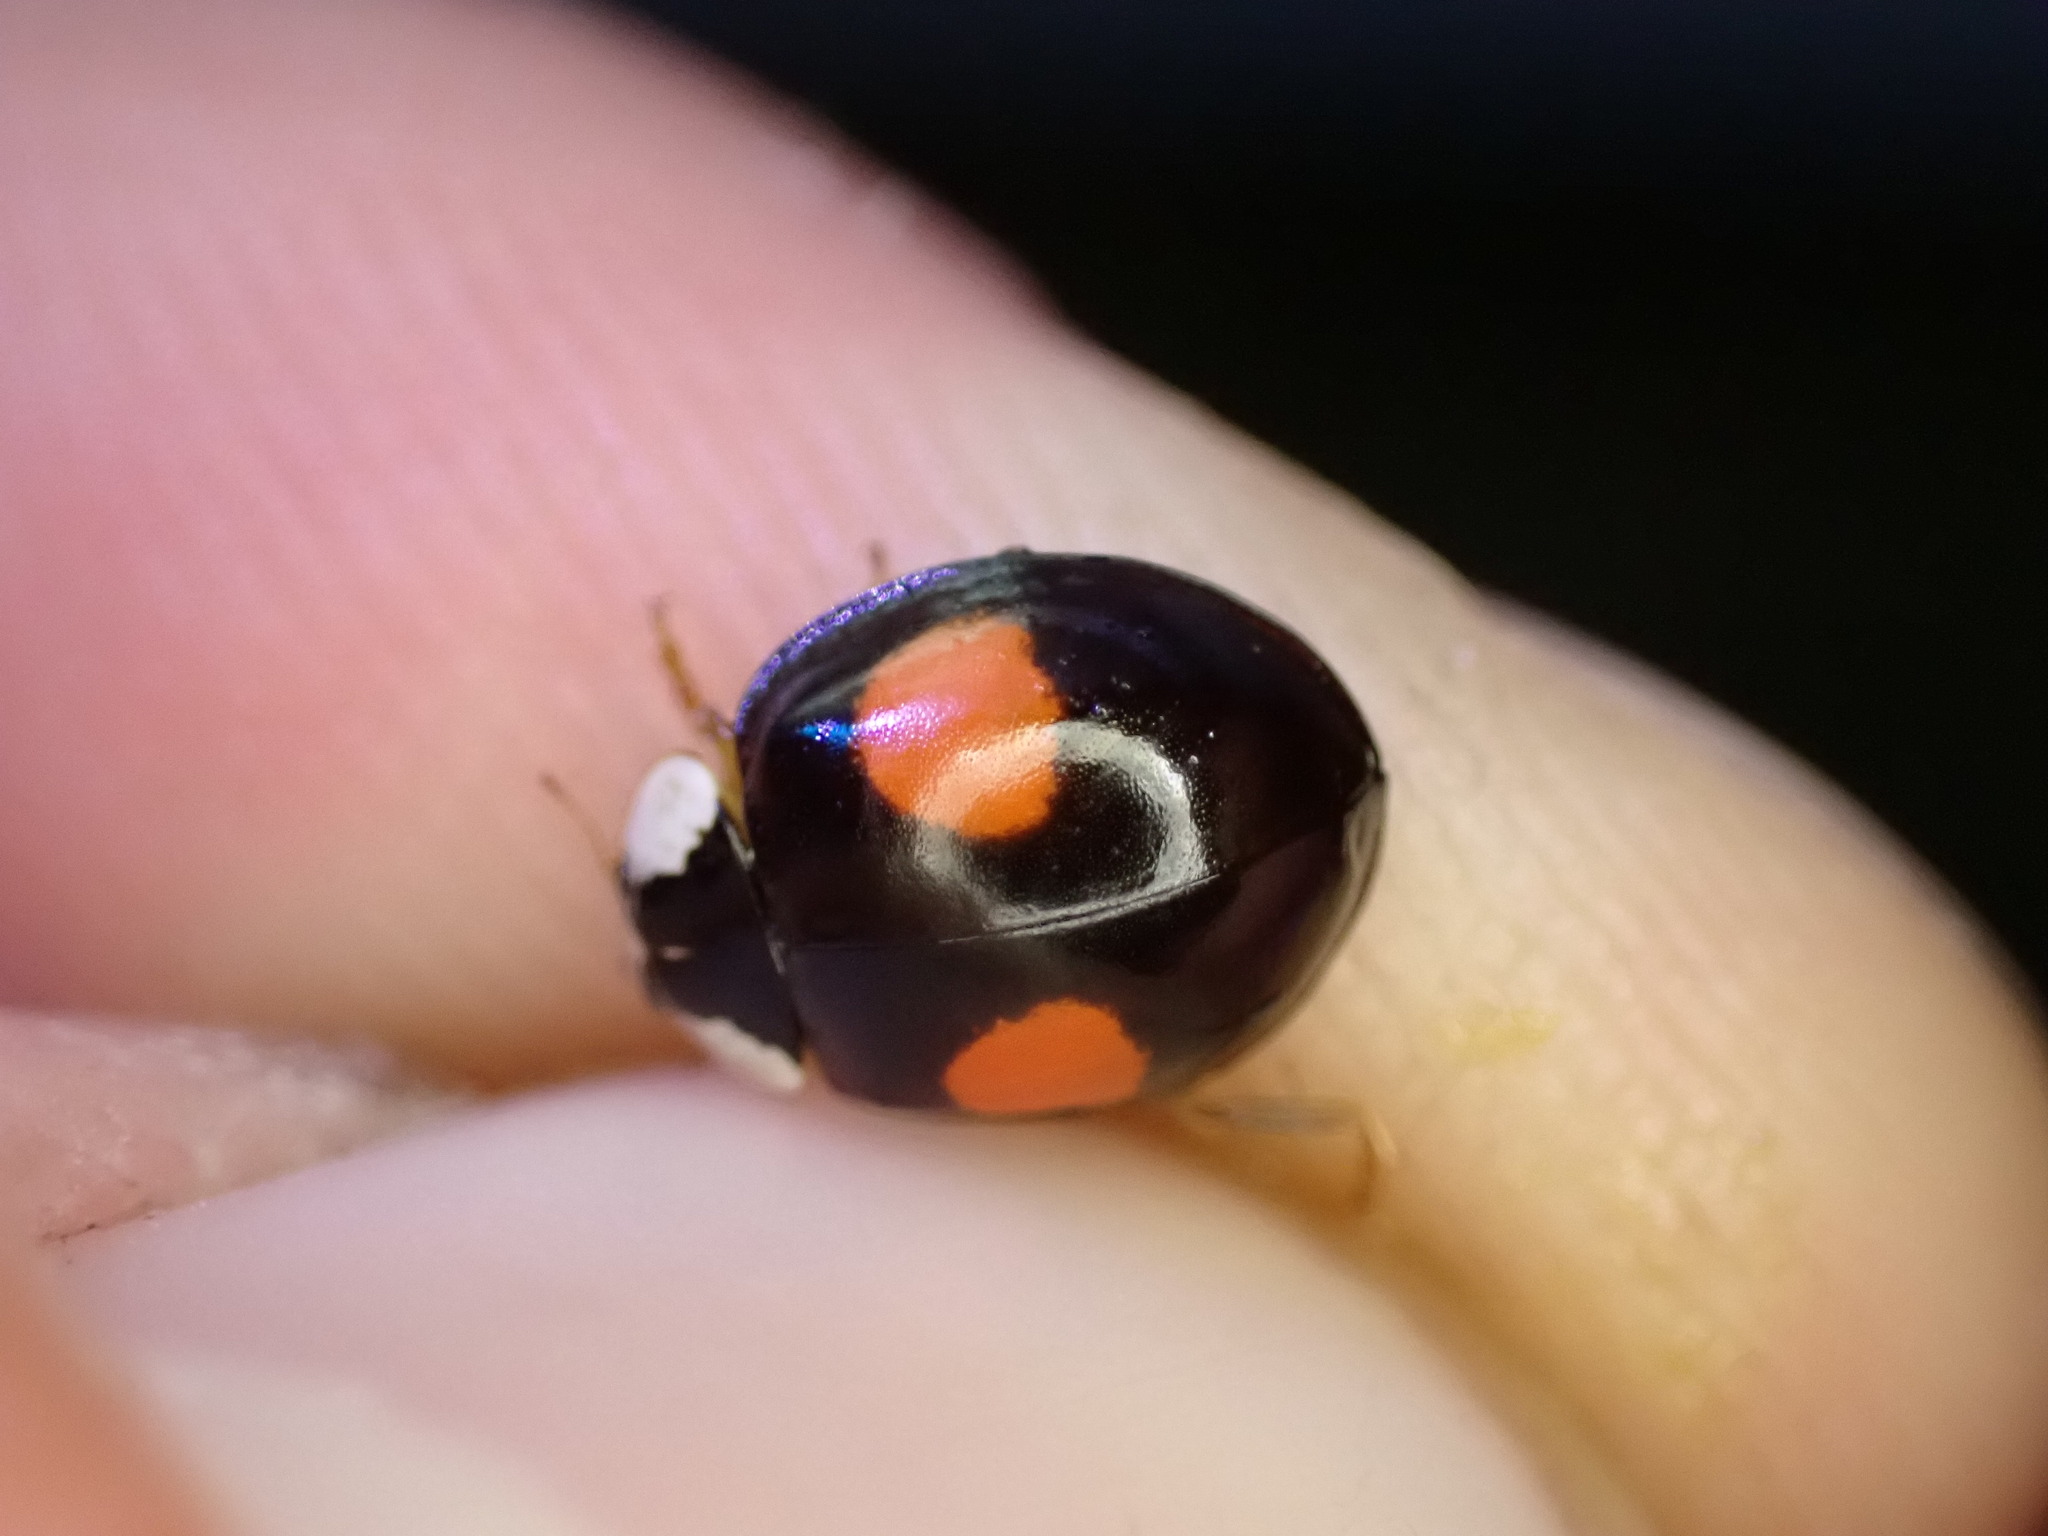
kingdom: Animalia
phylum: Arthropoda
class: Insecta
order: Coleoptera
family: Coccinellidae
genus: Harmonia
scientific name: Harmonia axyridis
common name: Harlequin ladybird
